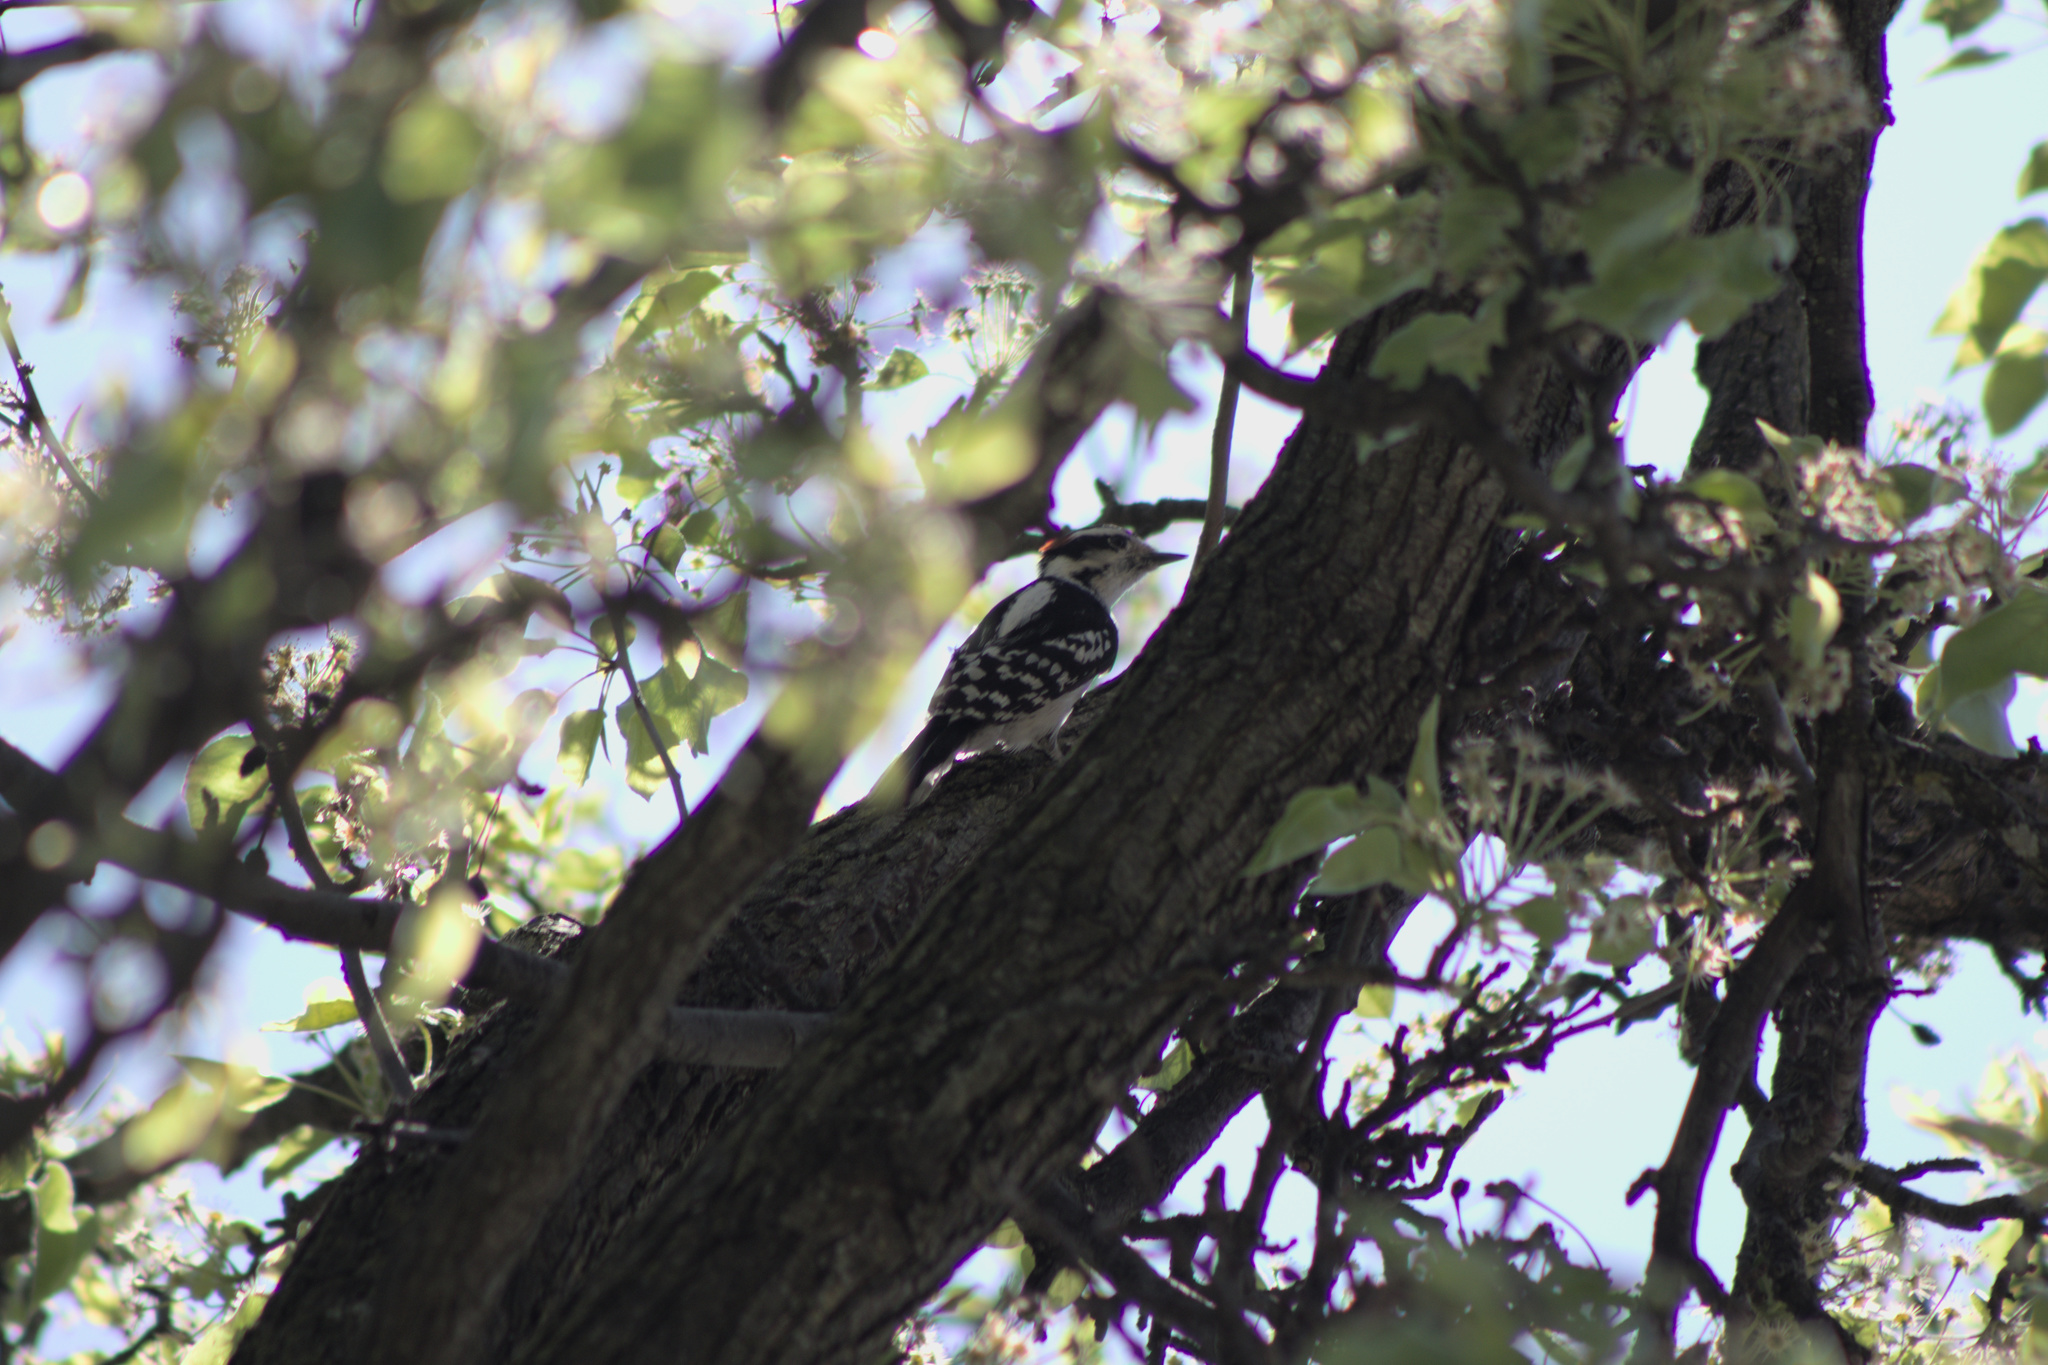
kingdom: Animalia
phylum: Chordata
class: Aves
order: Piciformes
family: Picidae
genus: Dryobates
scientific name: Dryobates pubescens
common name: Downy woodpecker
